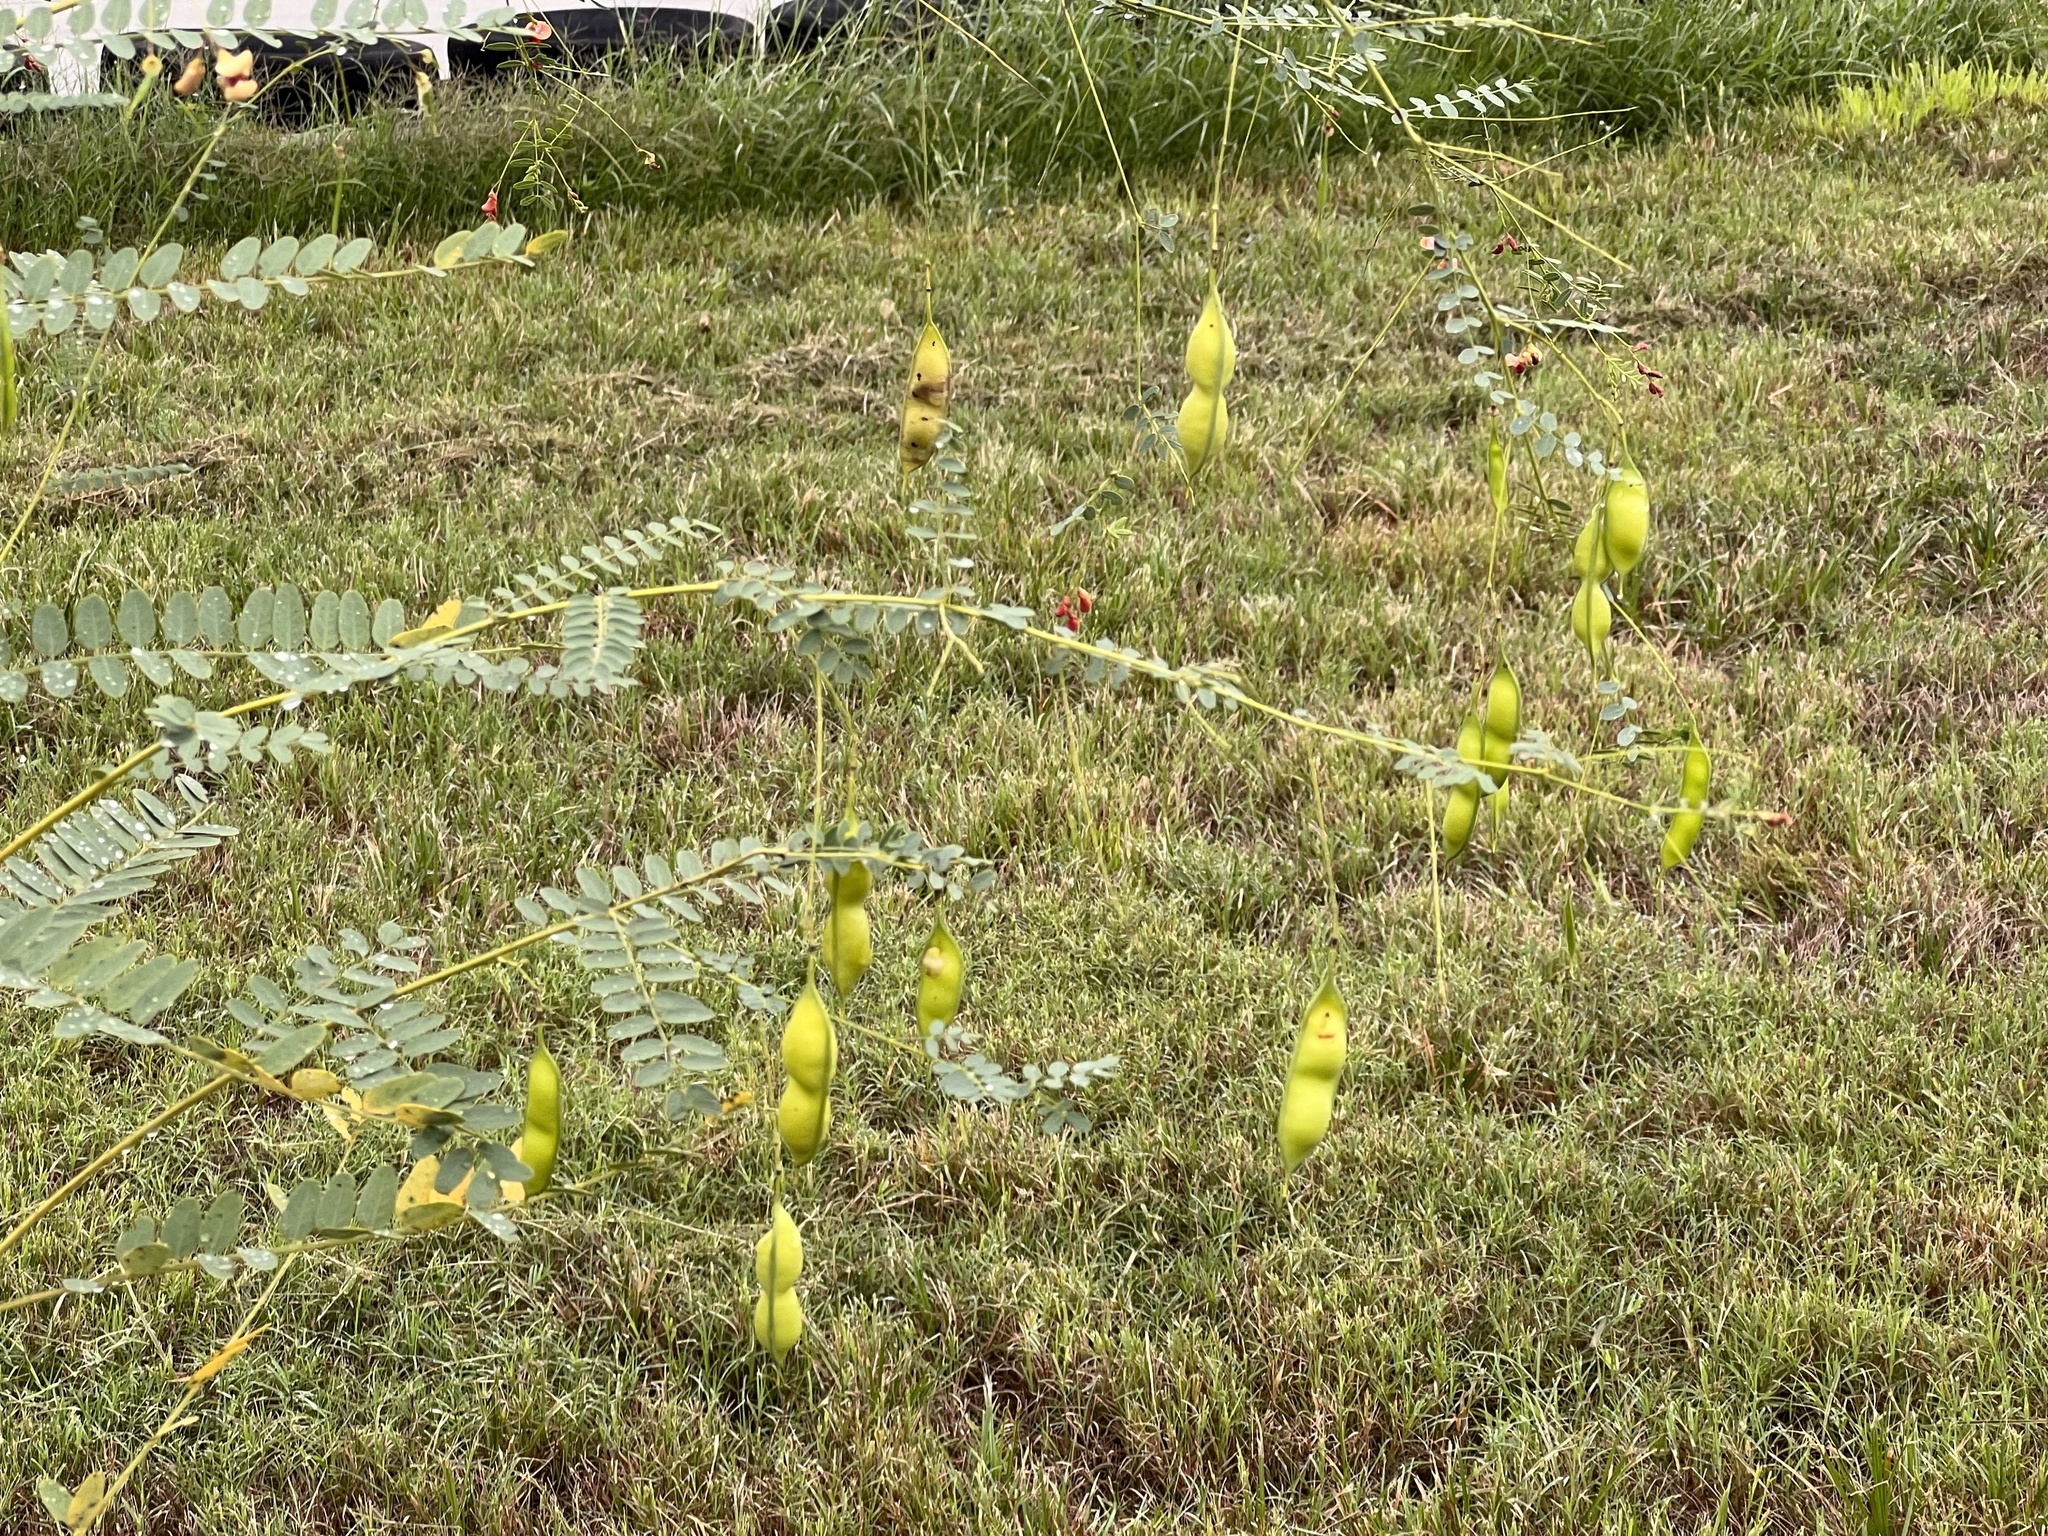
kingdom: Plantae
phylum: Tracheophyta
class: Magnoliopsida
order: Fabales
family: Fabaceae
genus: Sesbania
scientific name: Sesbania vesicaria
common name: Bagpod
